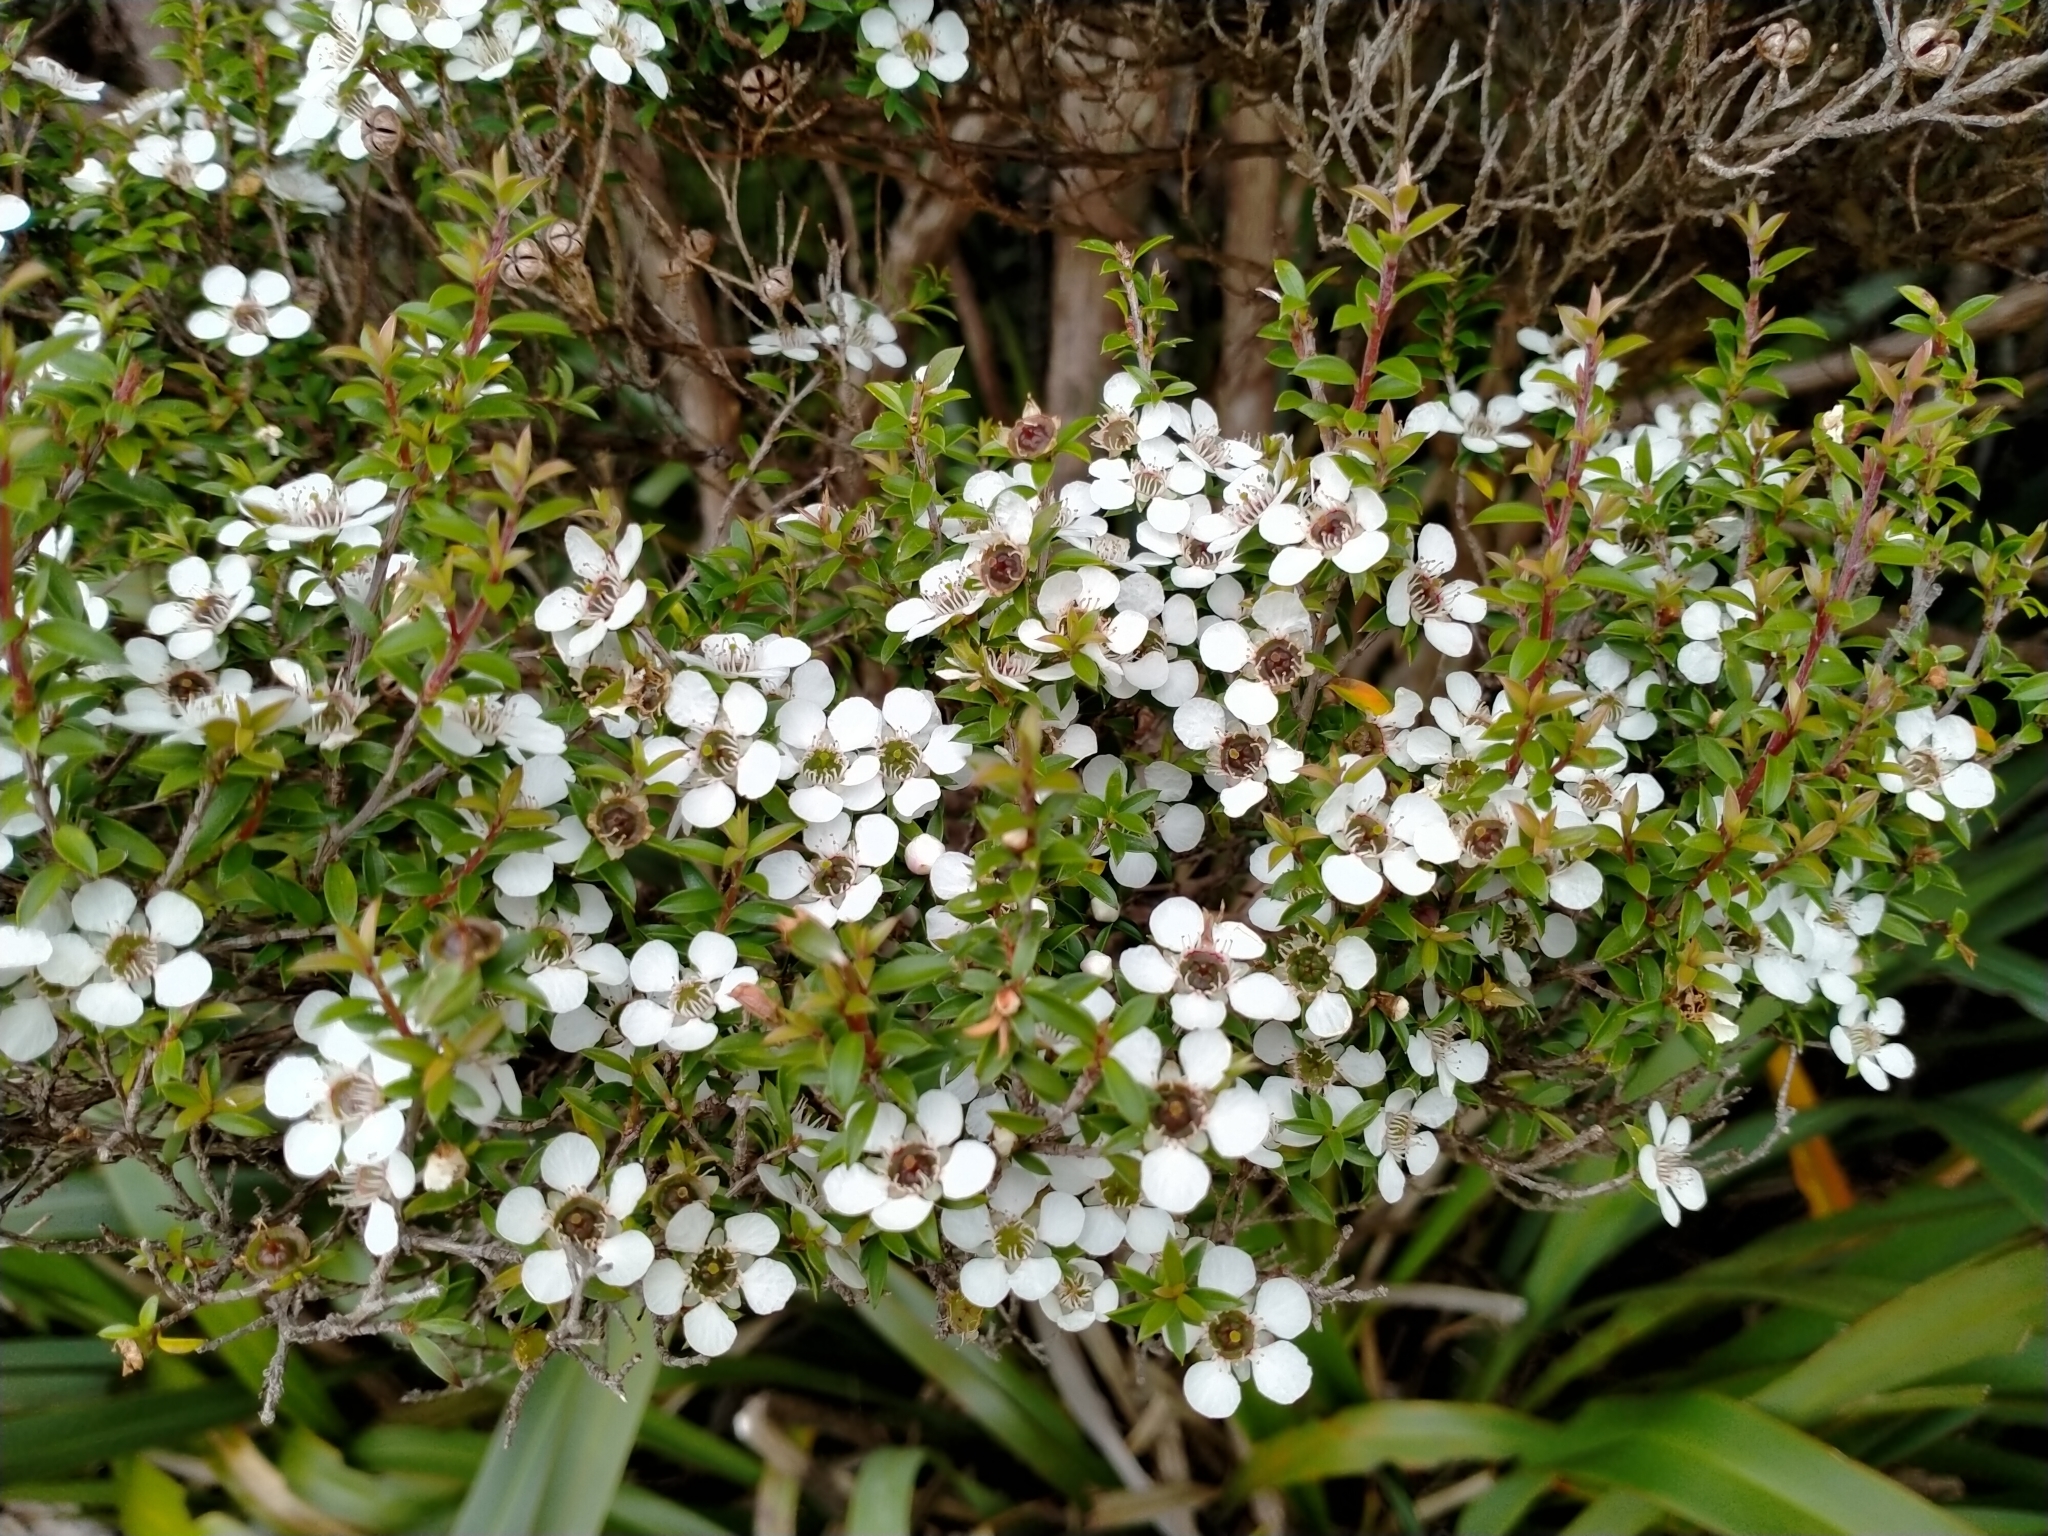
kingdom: Plantae
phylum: Tracheophyta
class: Magnoliopsida
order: Myrtales
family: Myrtaceae
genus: Leptospermum
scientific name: Leptospermum scoparium
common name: Broom tea-tree
